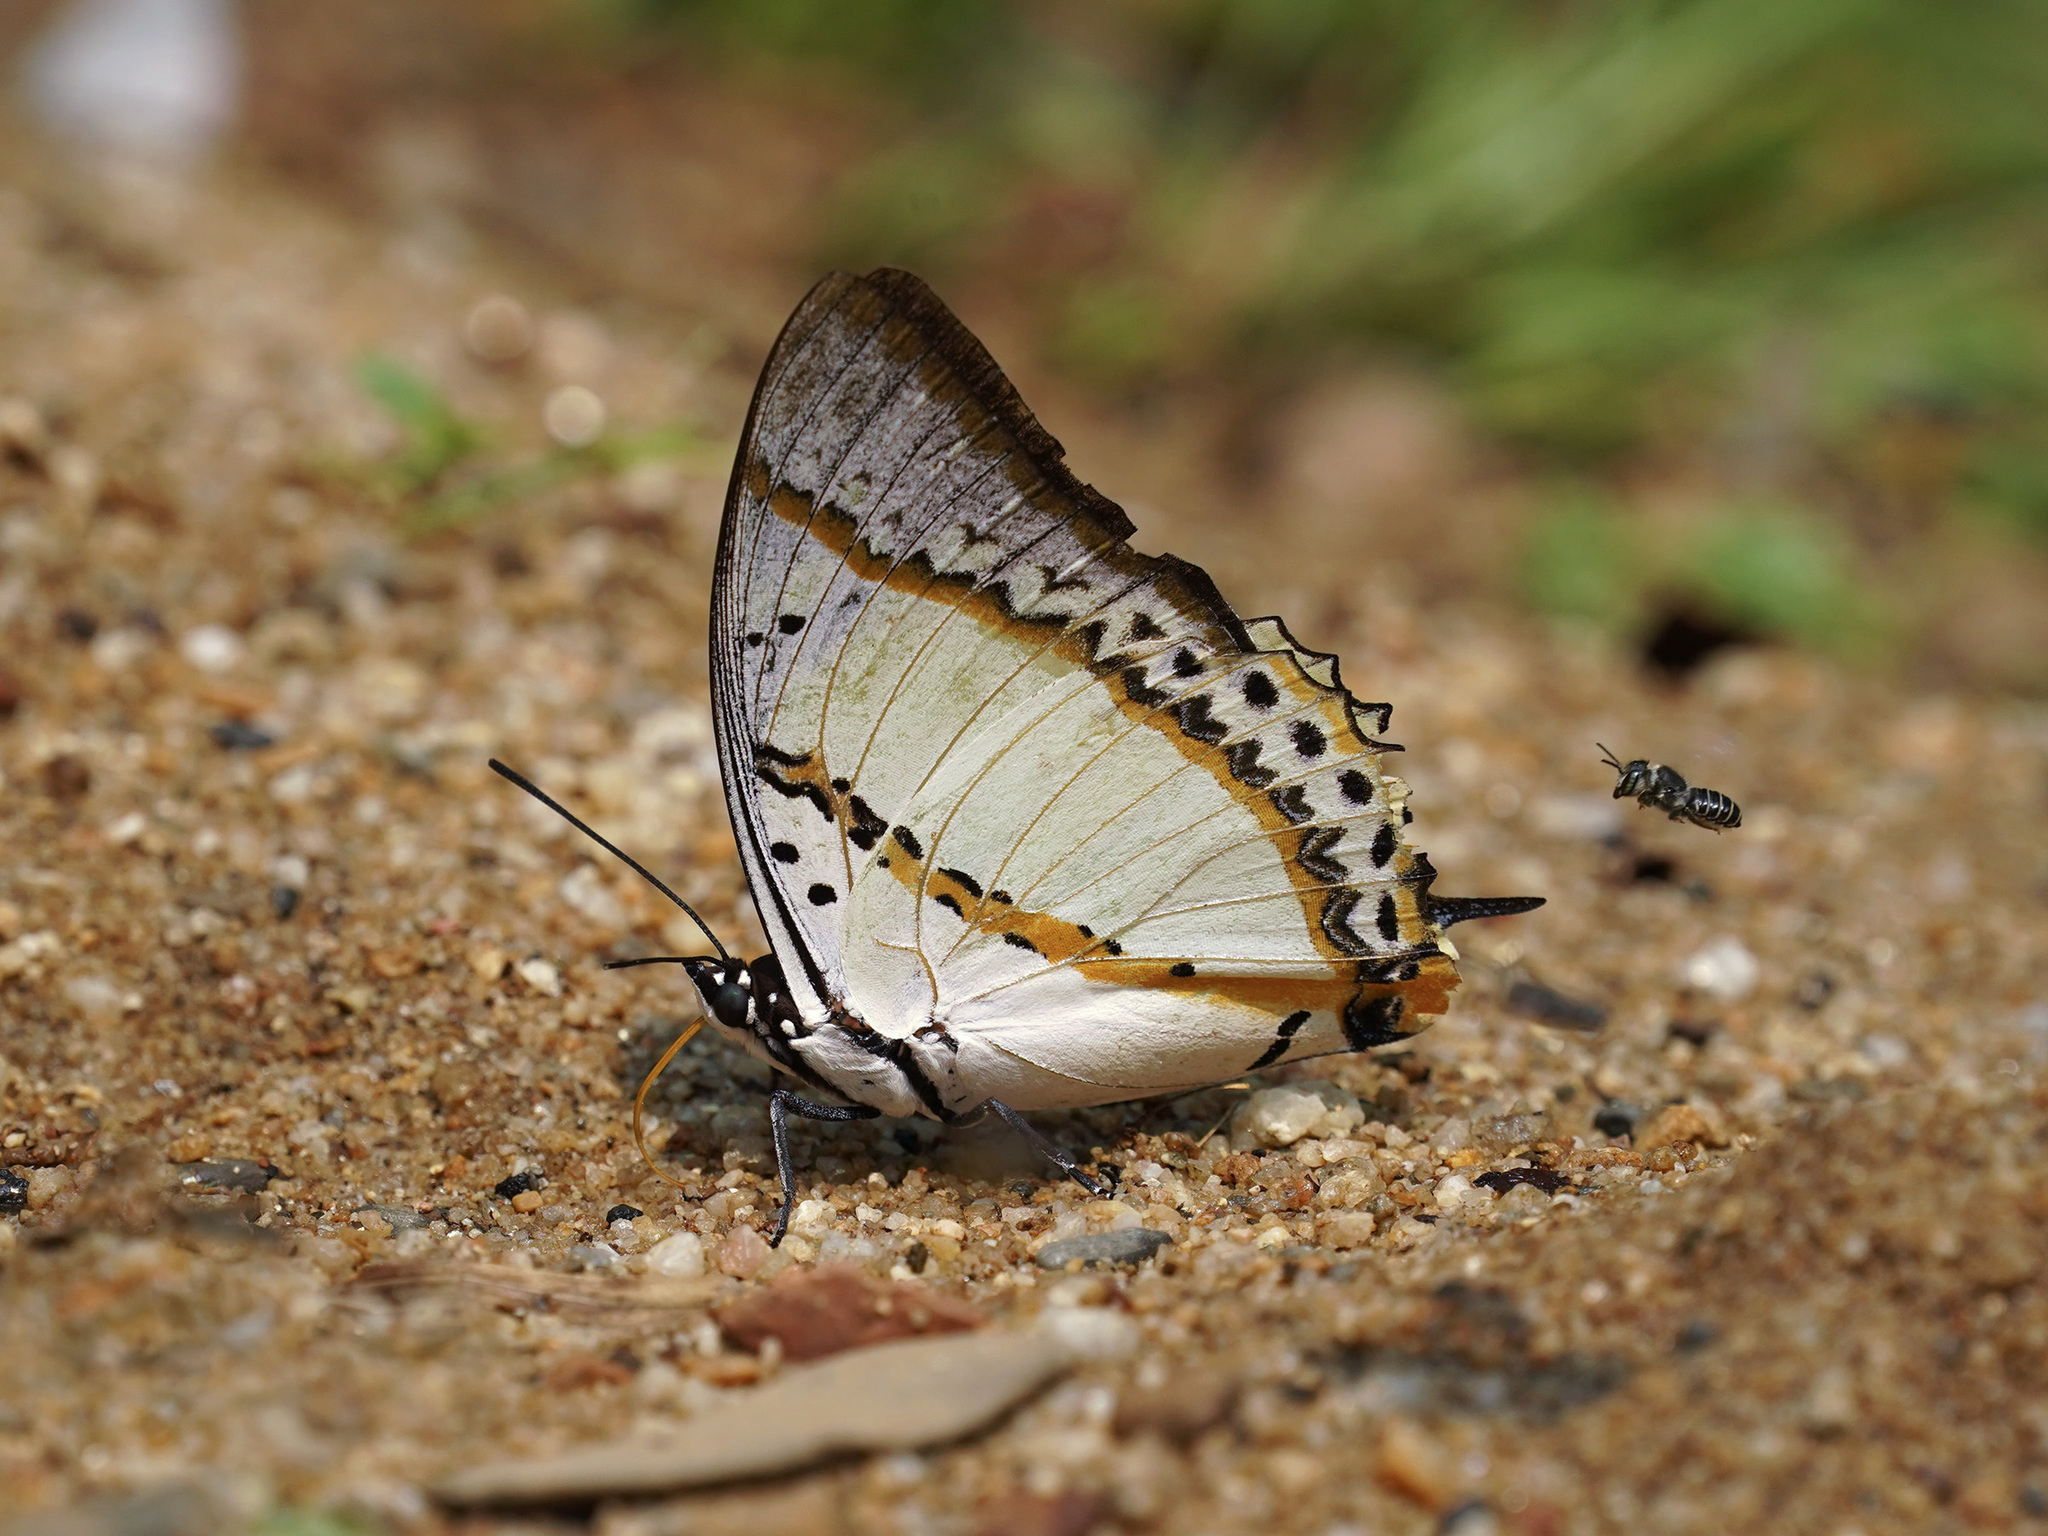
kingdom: Animalia
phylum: Arthropoda
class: Insecta
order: Lepidoptera
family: Nymphalidae
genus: Polyura
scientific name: Polyura nepenthes
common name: Shan nawab
